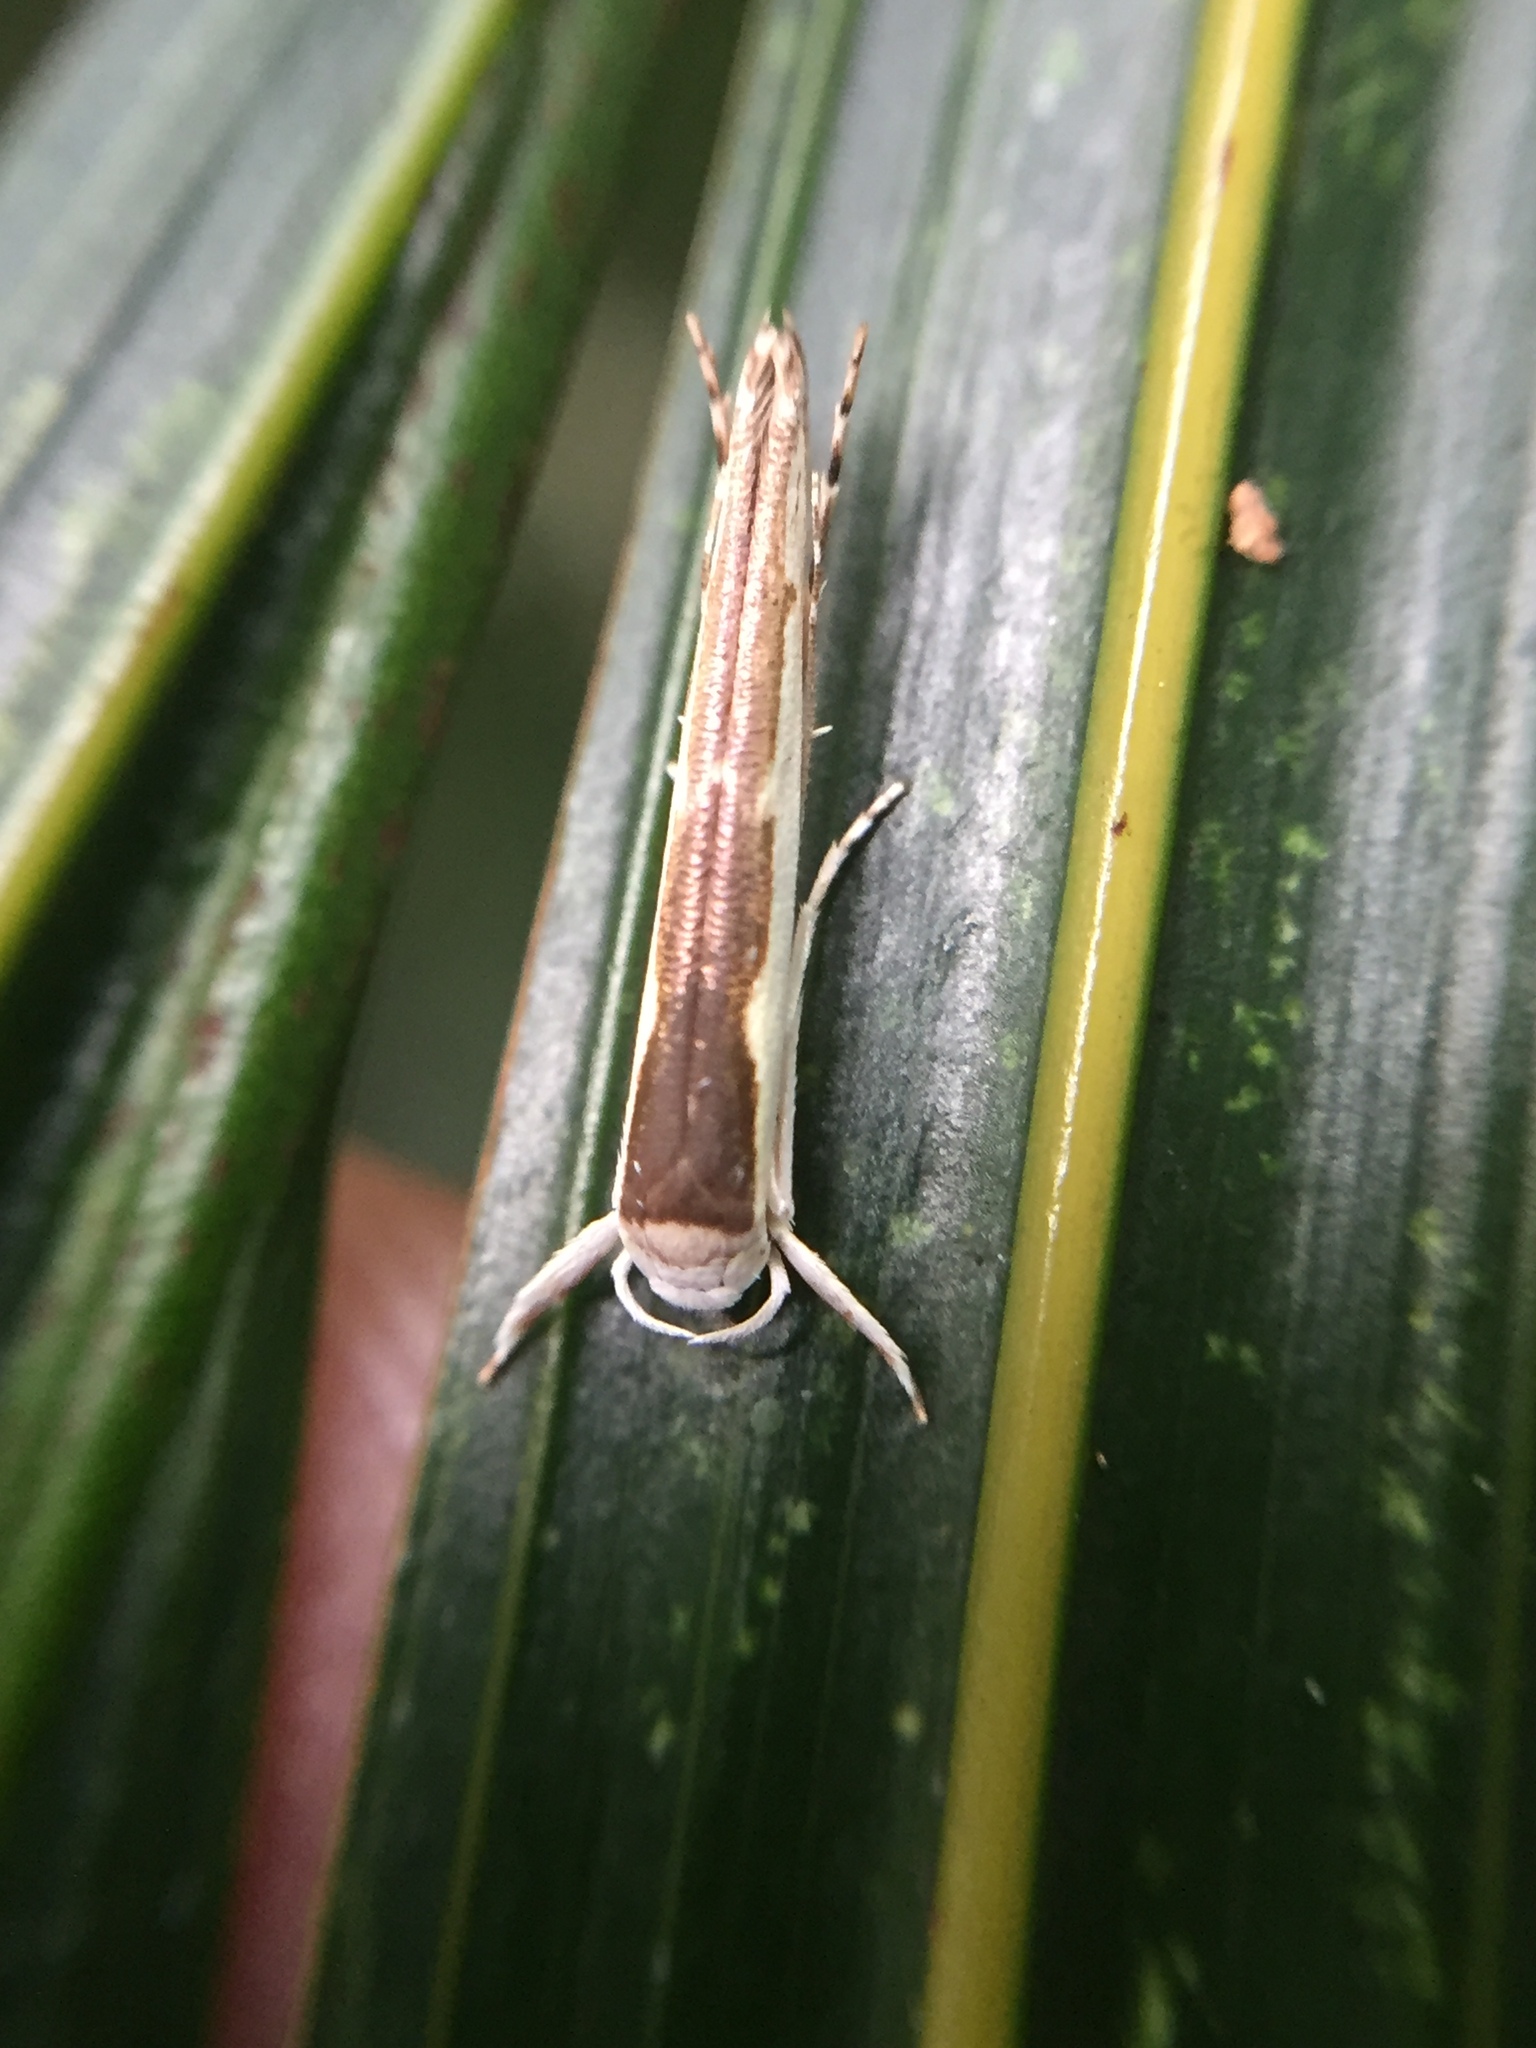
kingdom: Animalia
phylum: Arthropoda
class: Insecta
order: Lepidoptera
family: Roeslerstammiidae
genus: Vanicela
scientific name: Vanicela disjunctella
